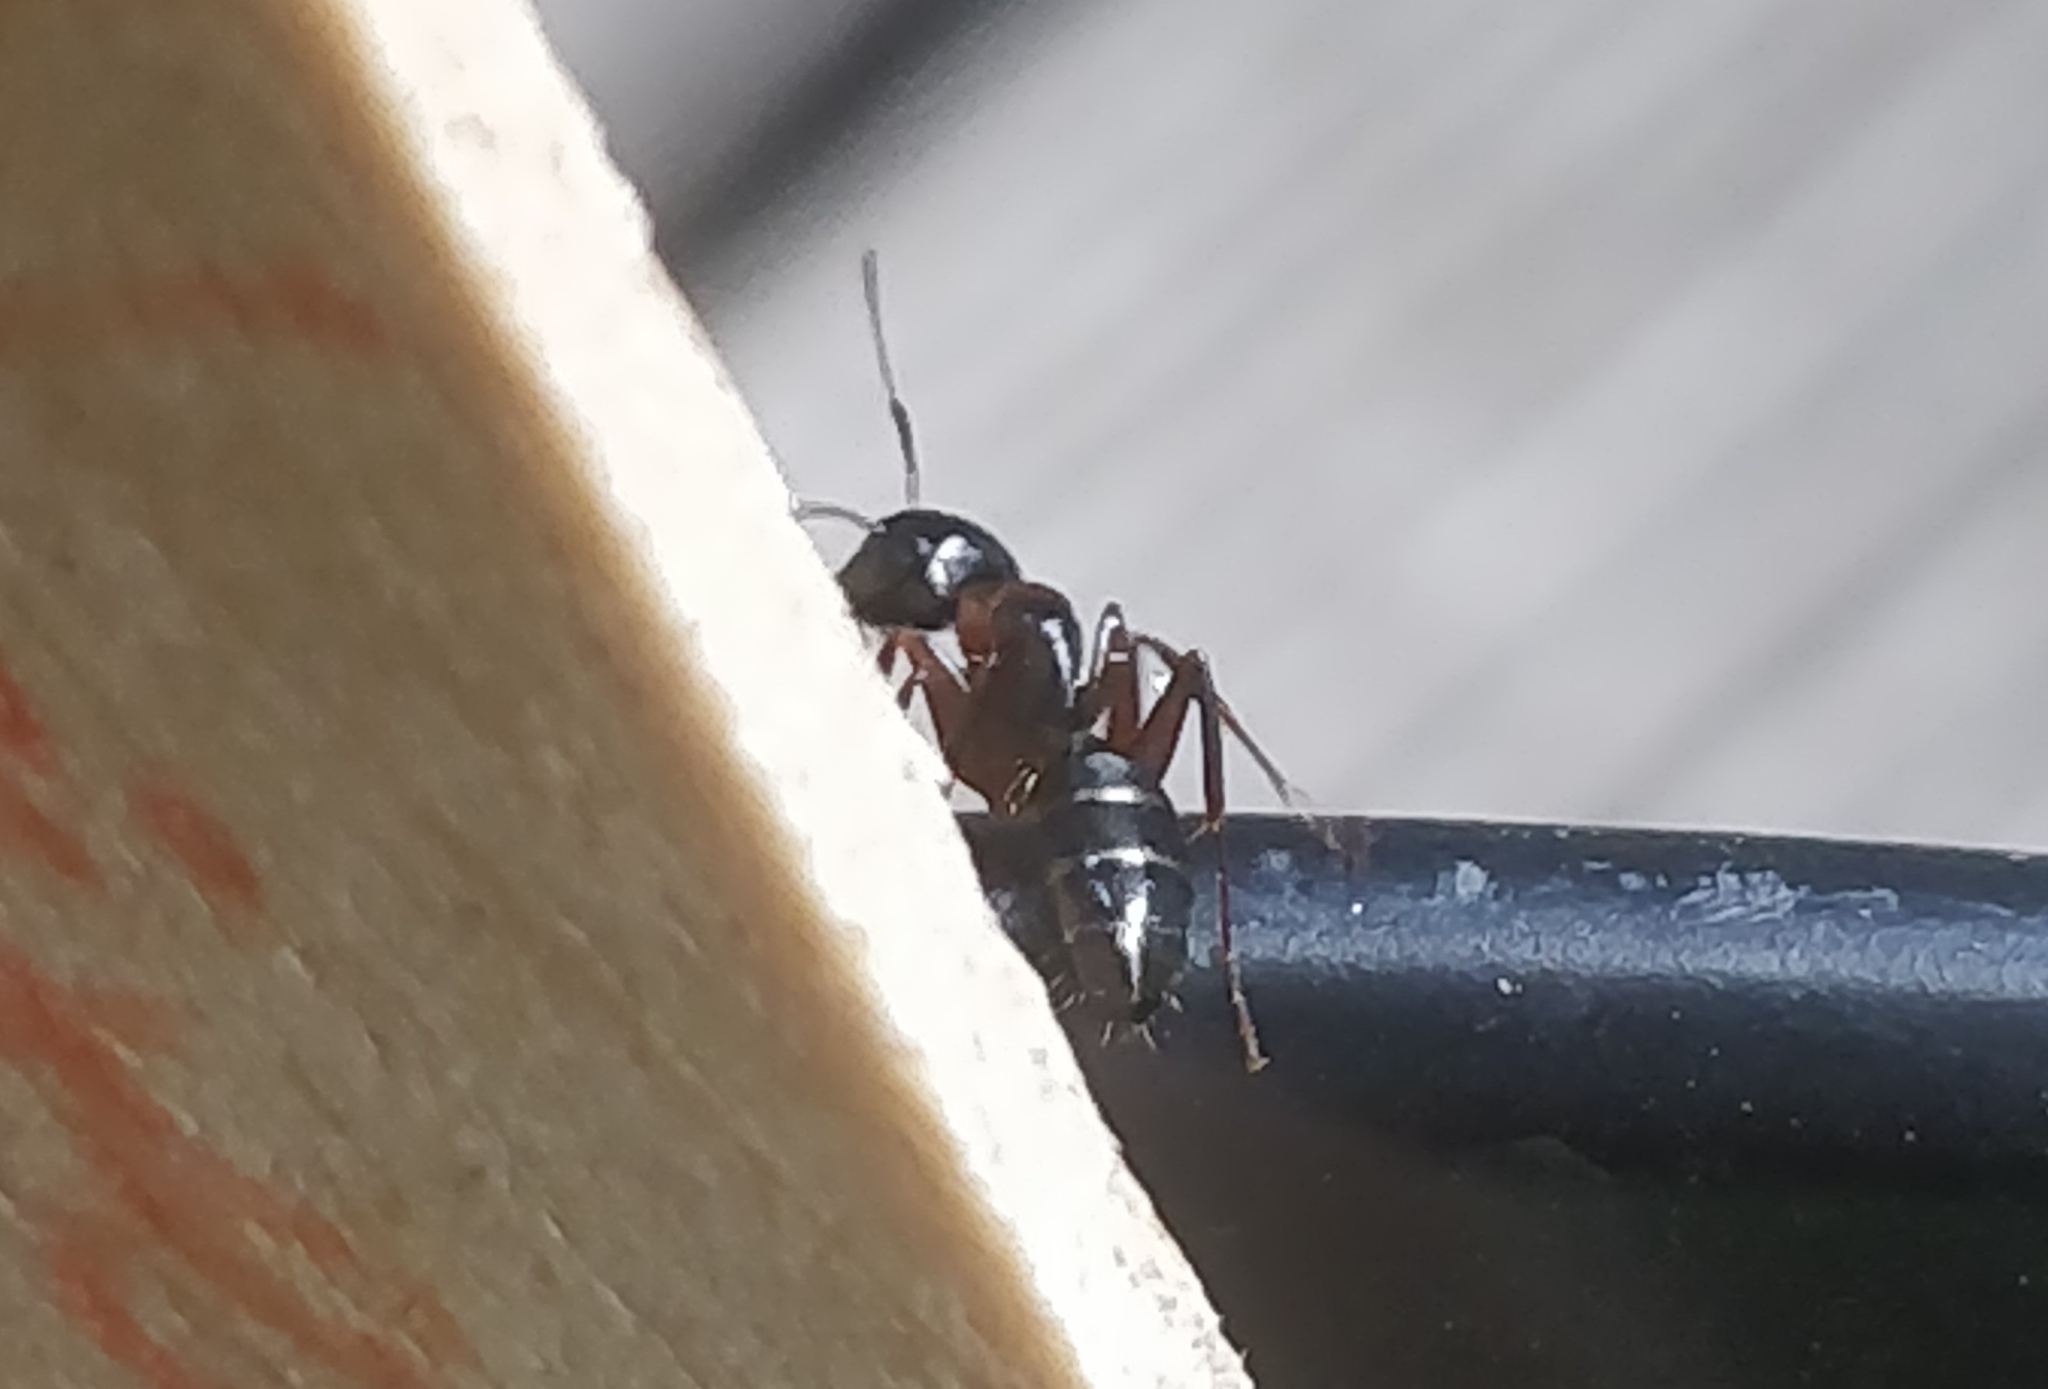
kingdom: Animalia
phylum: Arthropoda
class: Insecta
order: Hymenoptera
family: Formicidae
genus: Camponotus
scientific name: Camponotus nearcticus
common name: Smaller carpenter ant
